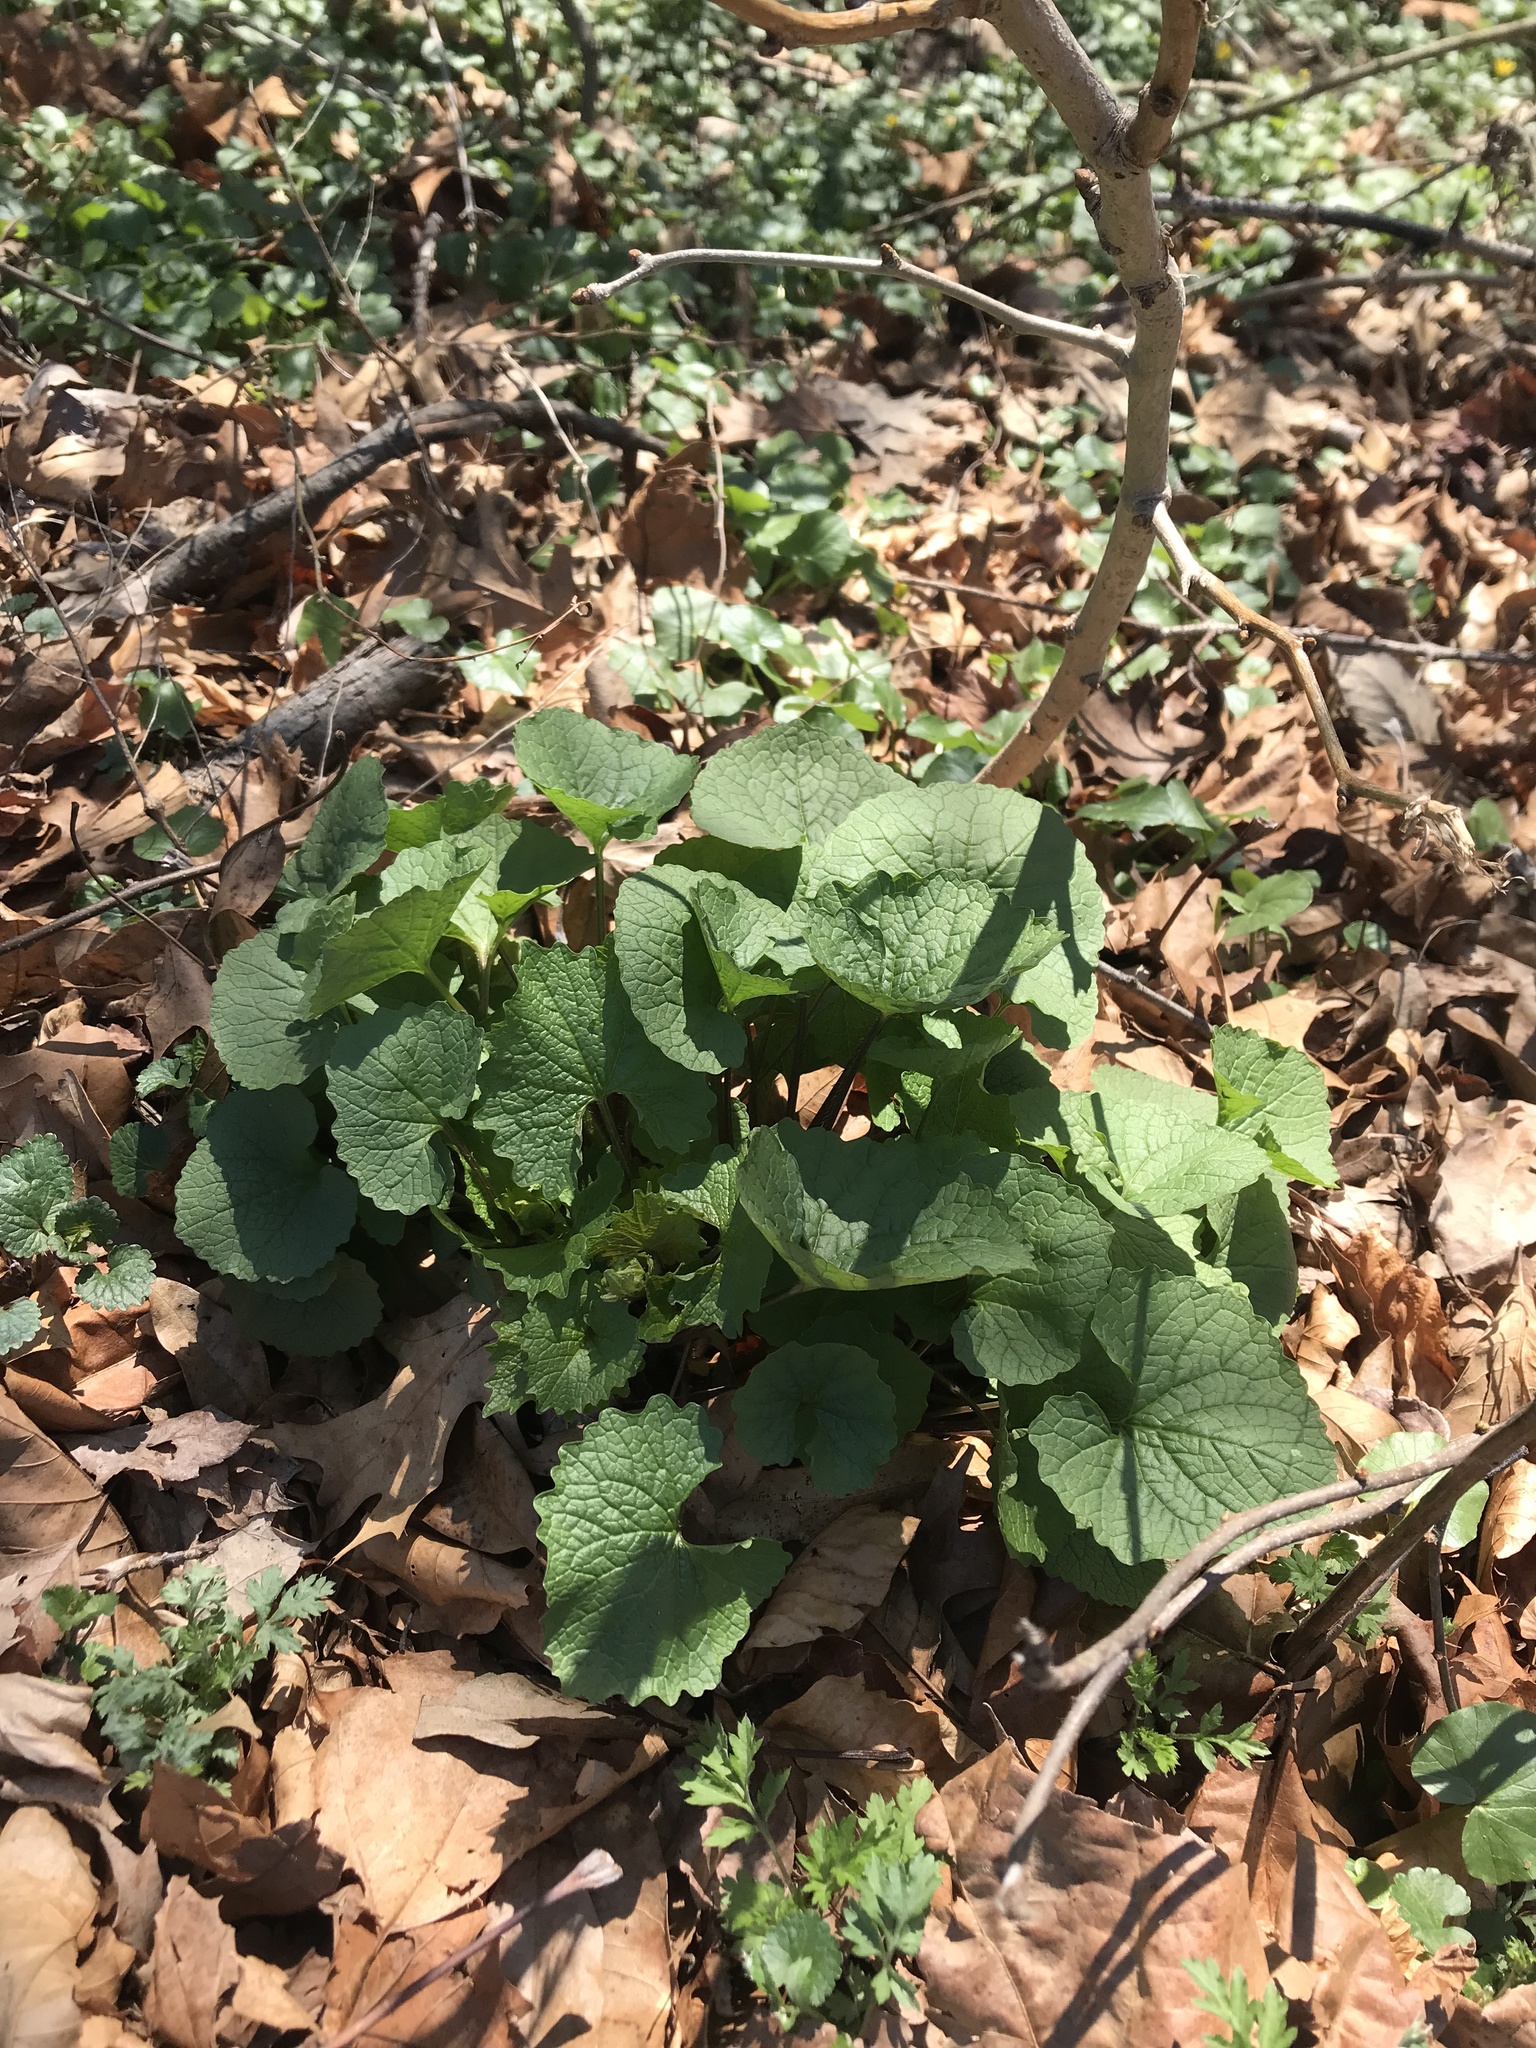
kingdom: Plantae
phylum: Tracheophyta
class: Magnoliopsida
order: Brassicales
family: Brassicaceae
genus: Alliaria
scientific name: Alliaria petiolata
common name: Garlic mustard
